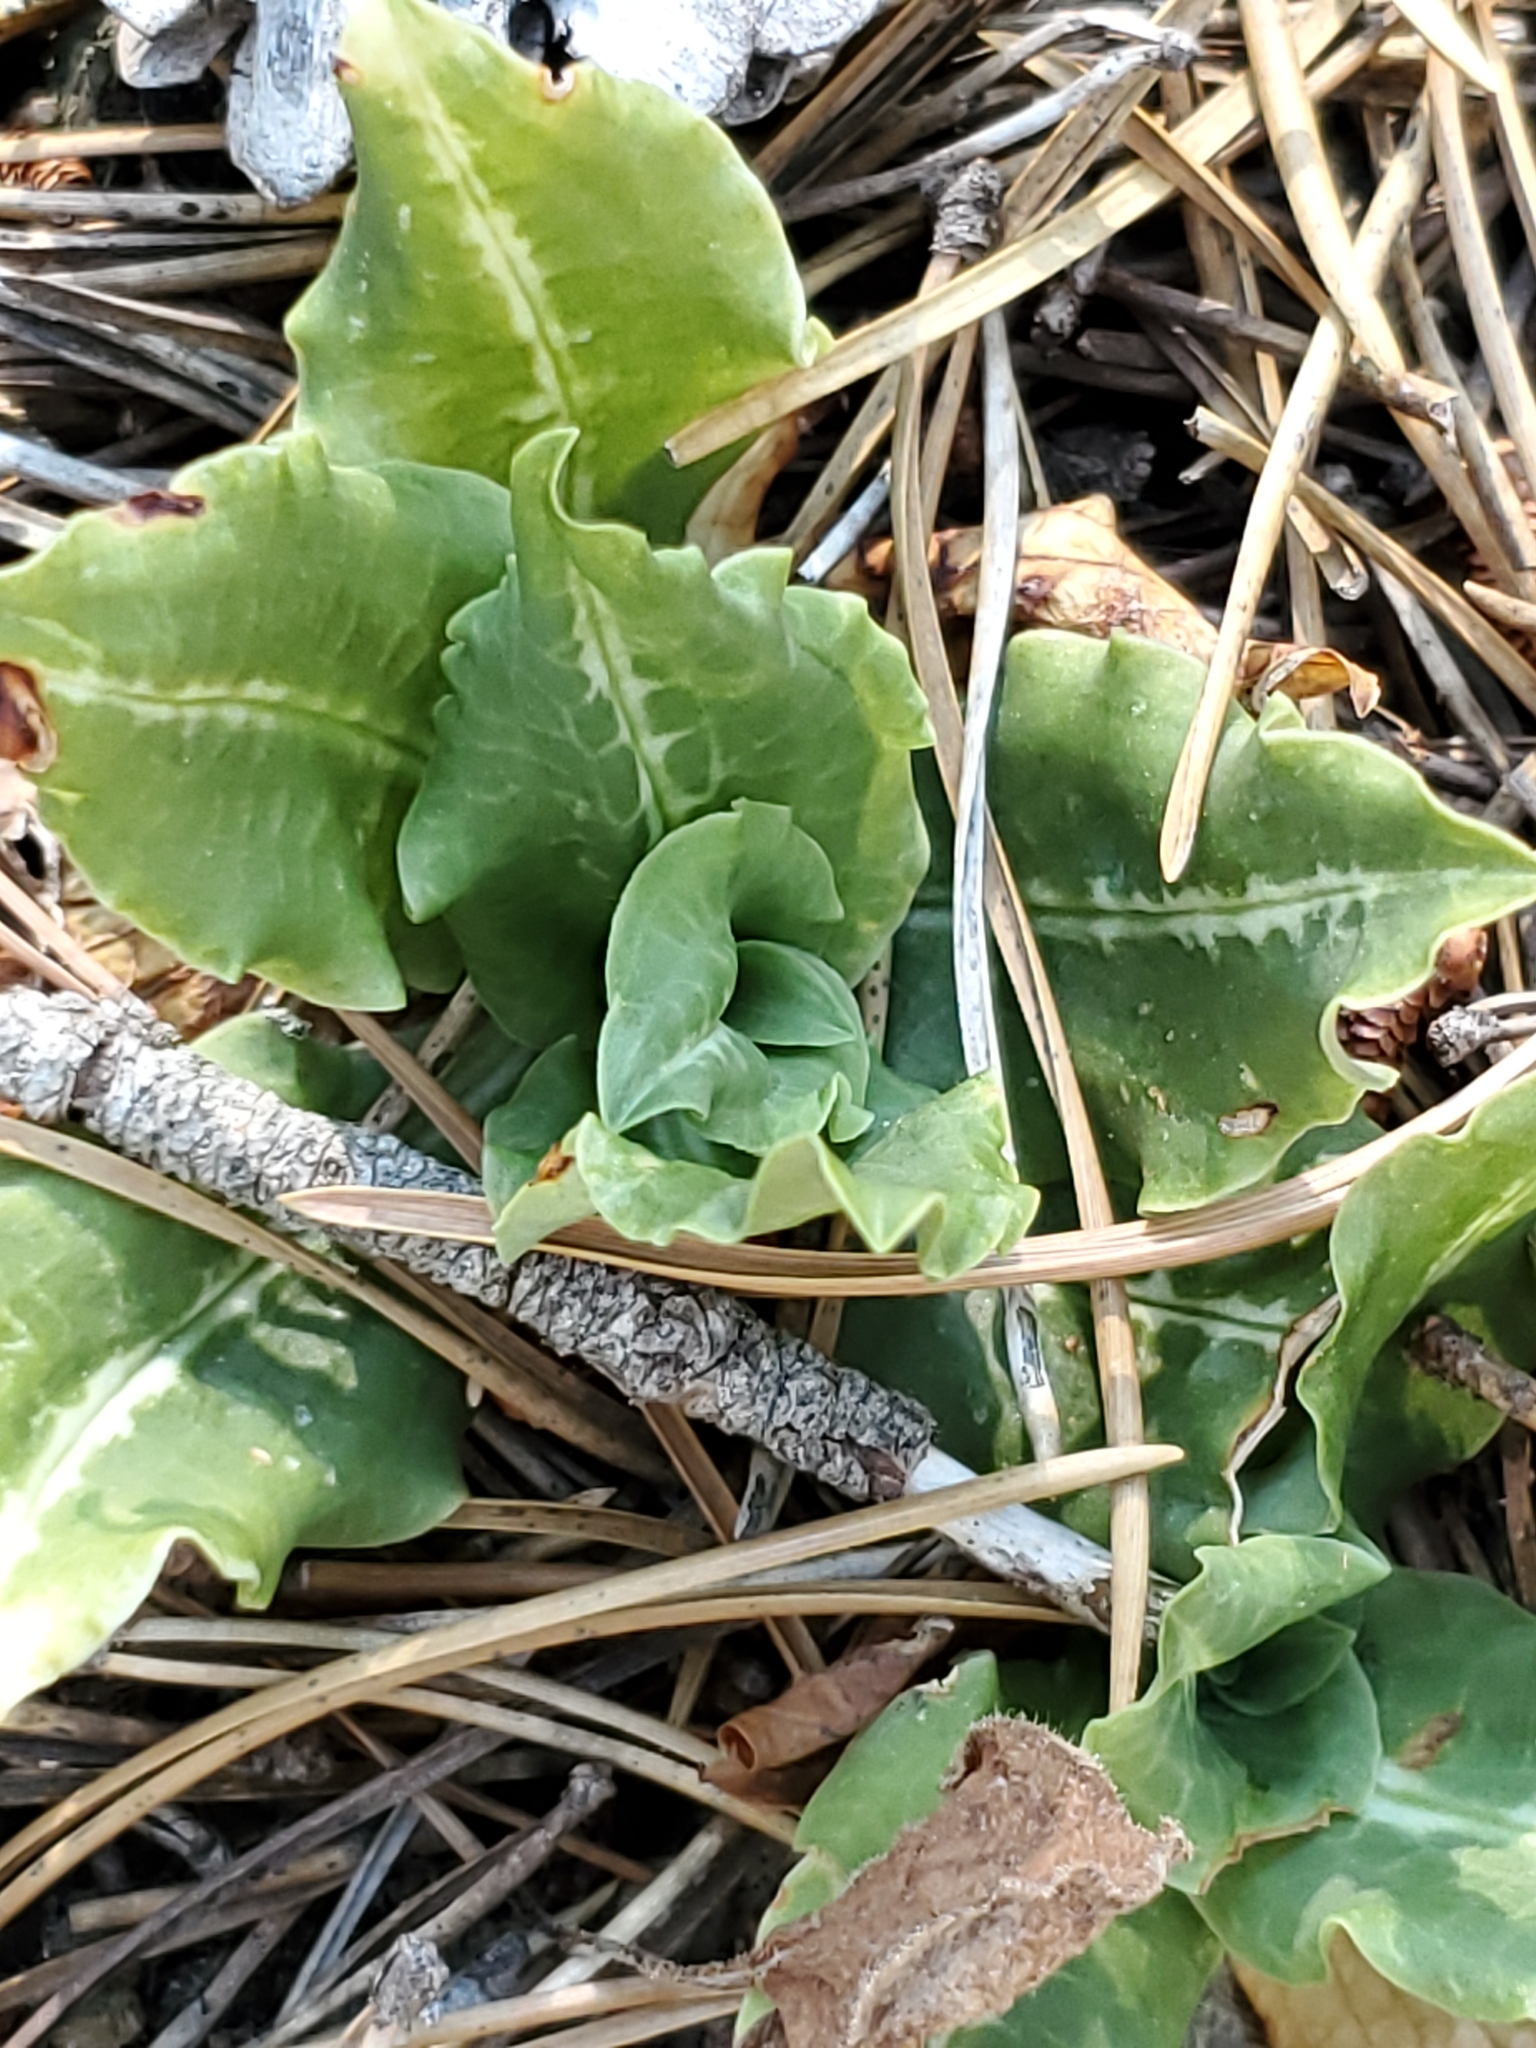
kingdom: Plantae
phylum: Tracheophyta
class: Liliopsida
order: Asparagales
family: Orchidaceae
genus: Goodyera
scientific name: Goodyera oblongifolia
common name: Giant rattlesnake-plantain
